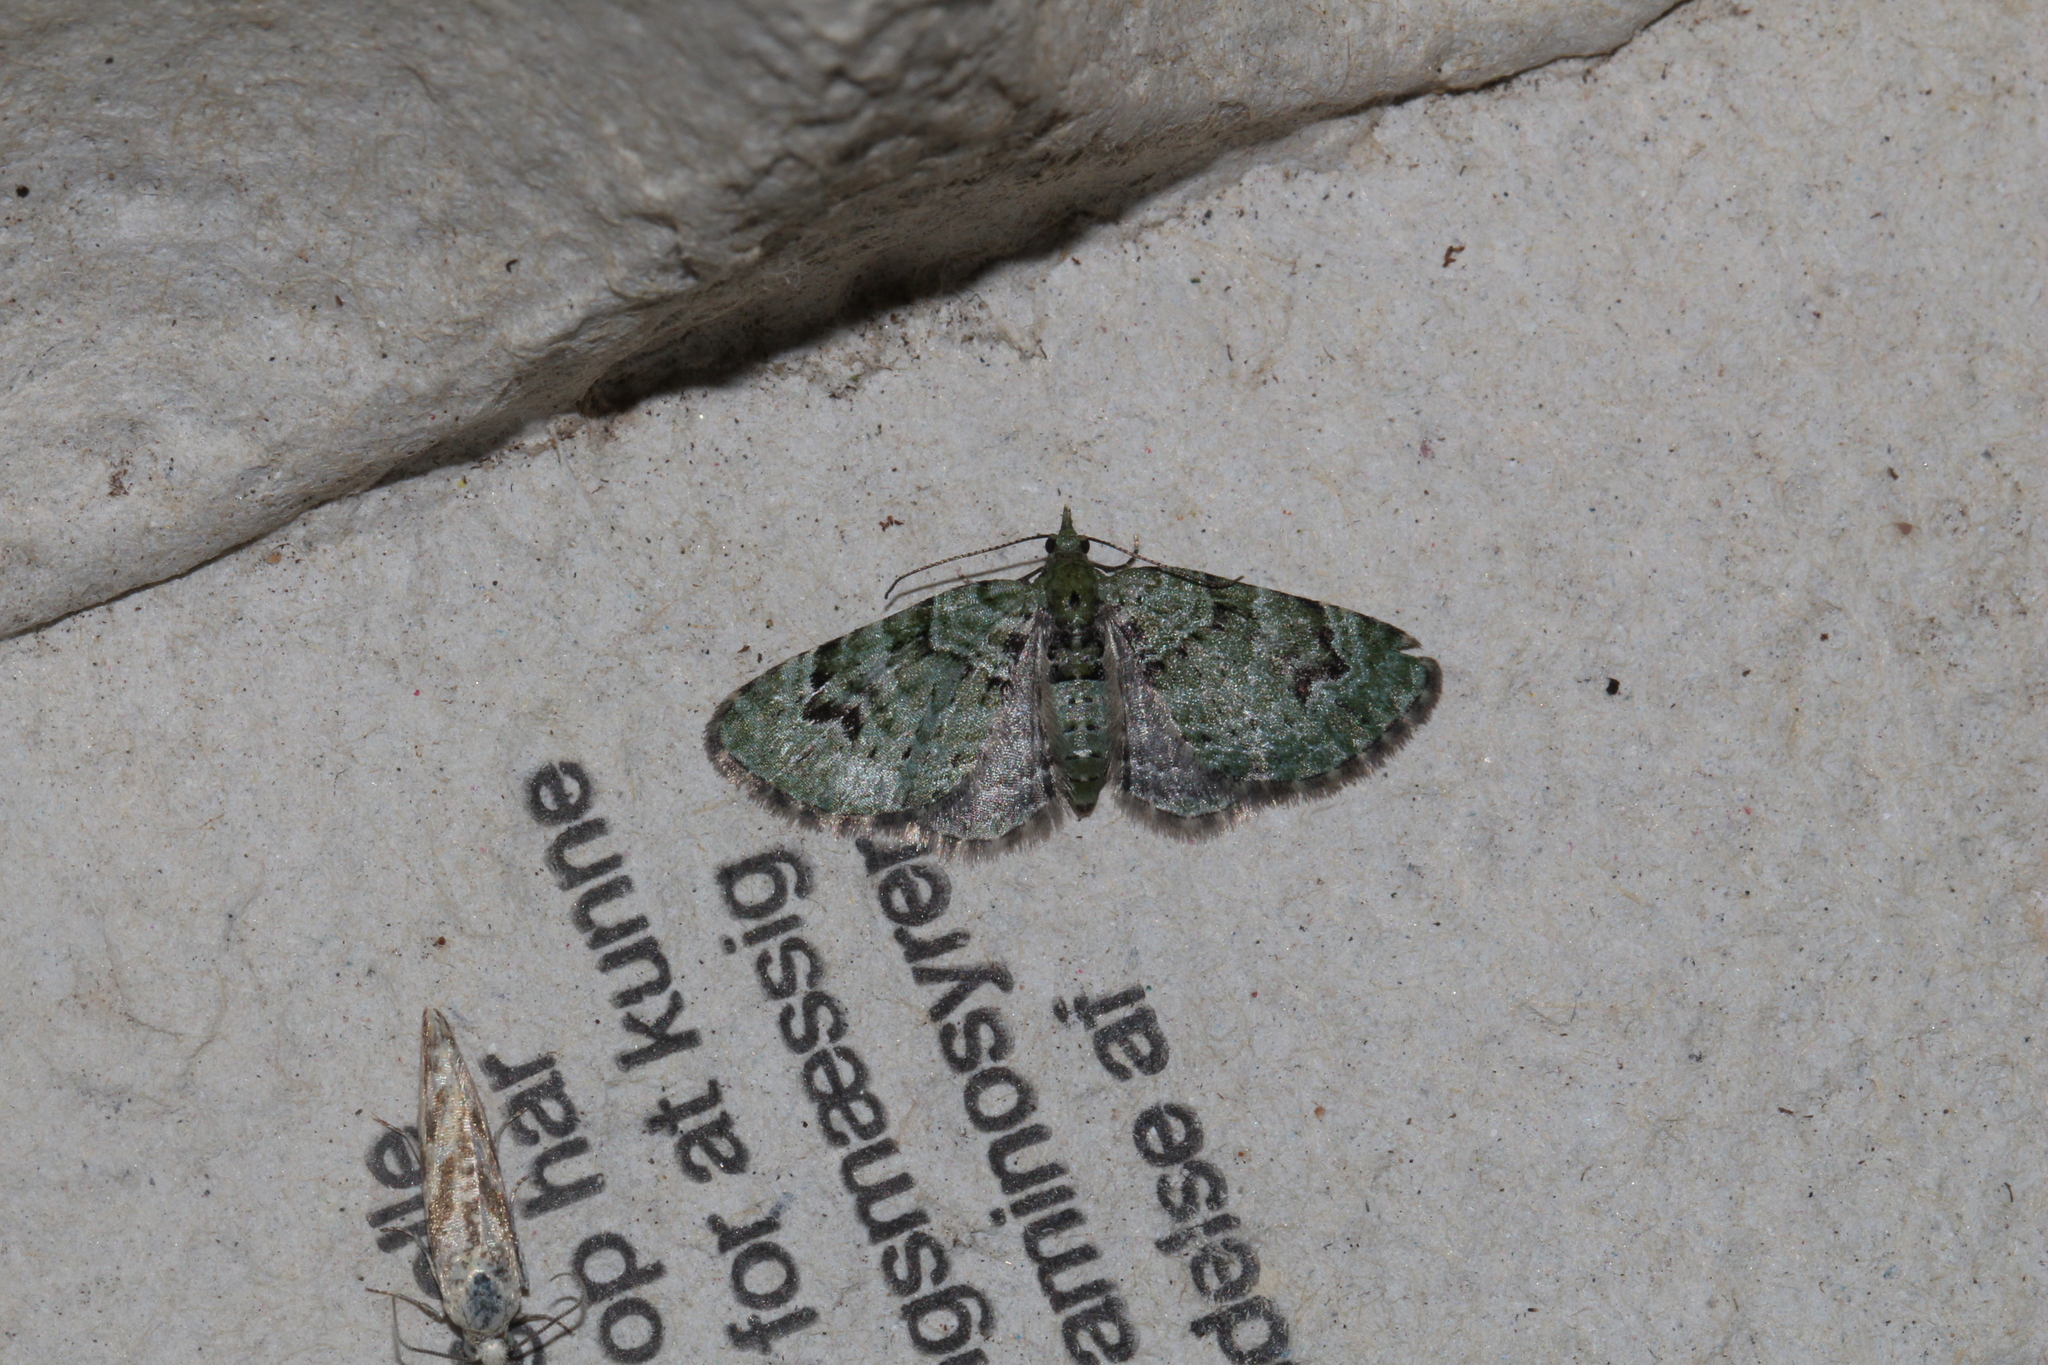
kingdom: Animalia
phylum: Arthropoda
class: Insecta
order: Lepidoptera
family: Geometridae
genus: Chloroclystis
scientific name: Chloroclystis v-ata
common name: V-pug
